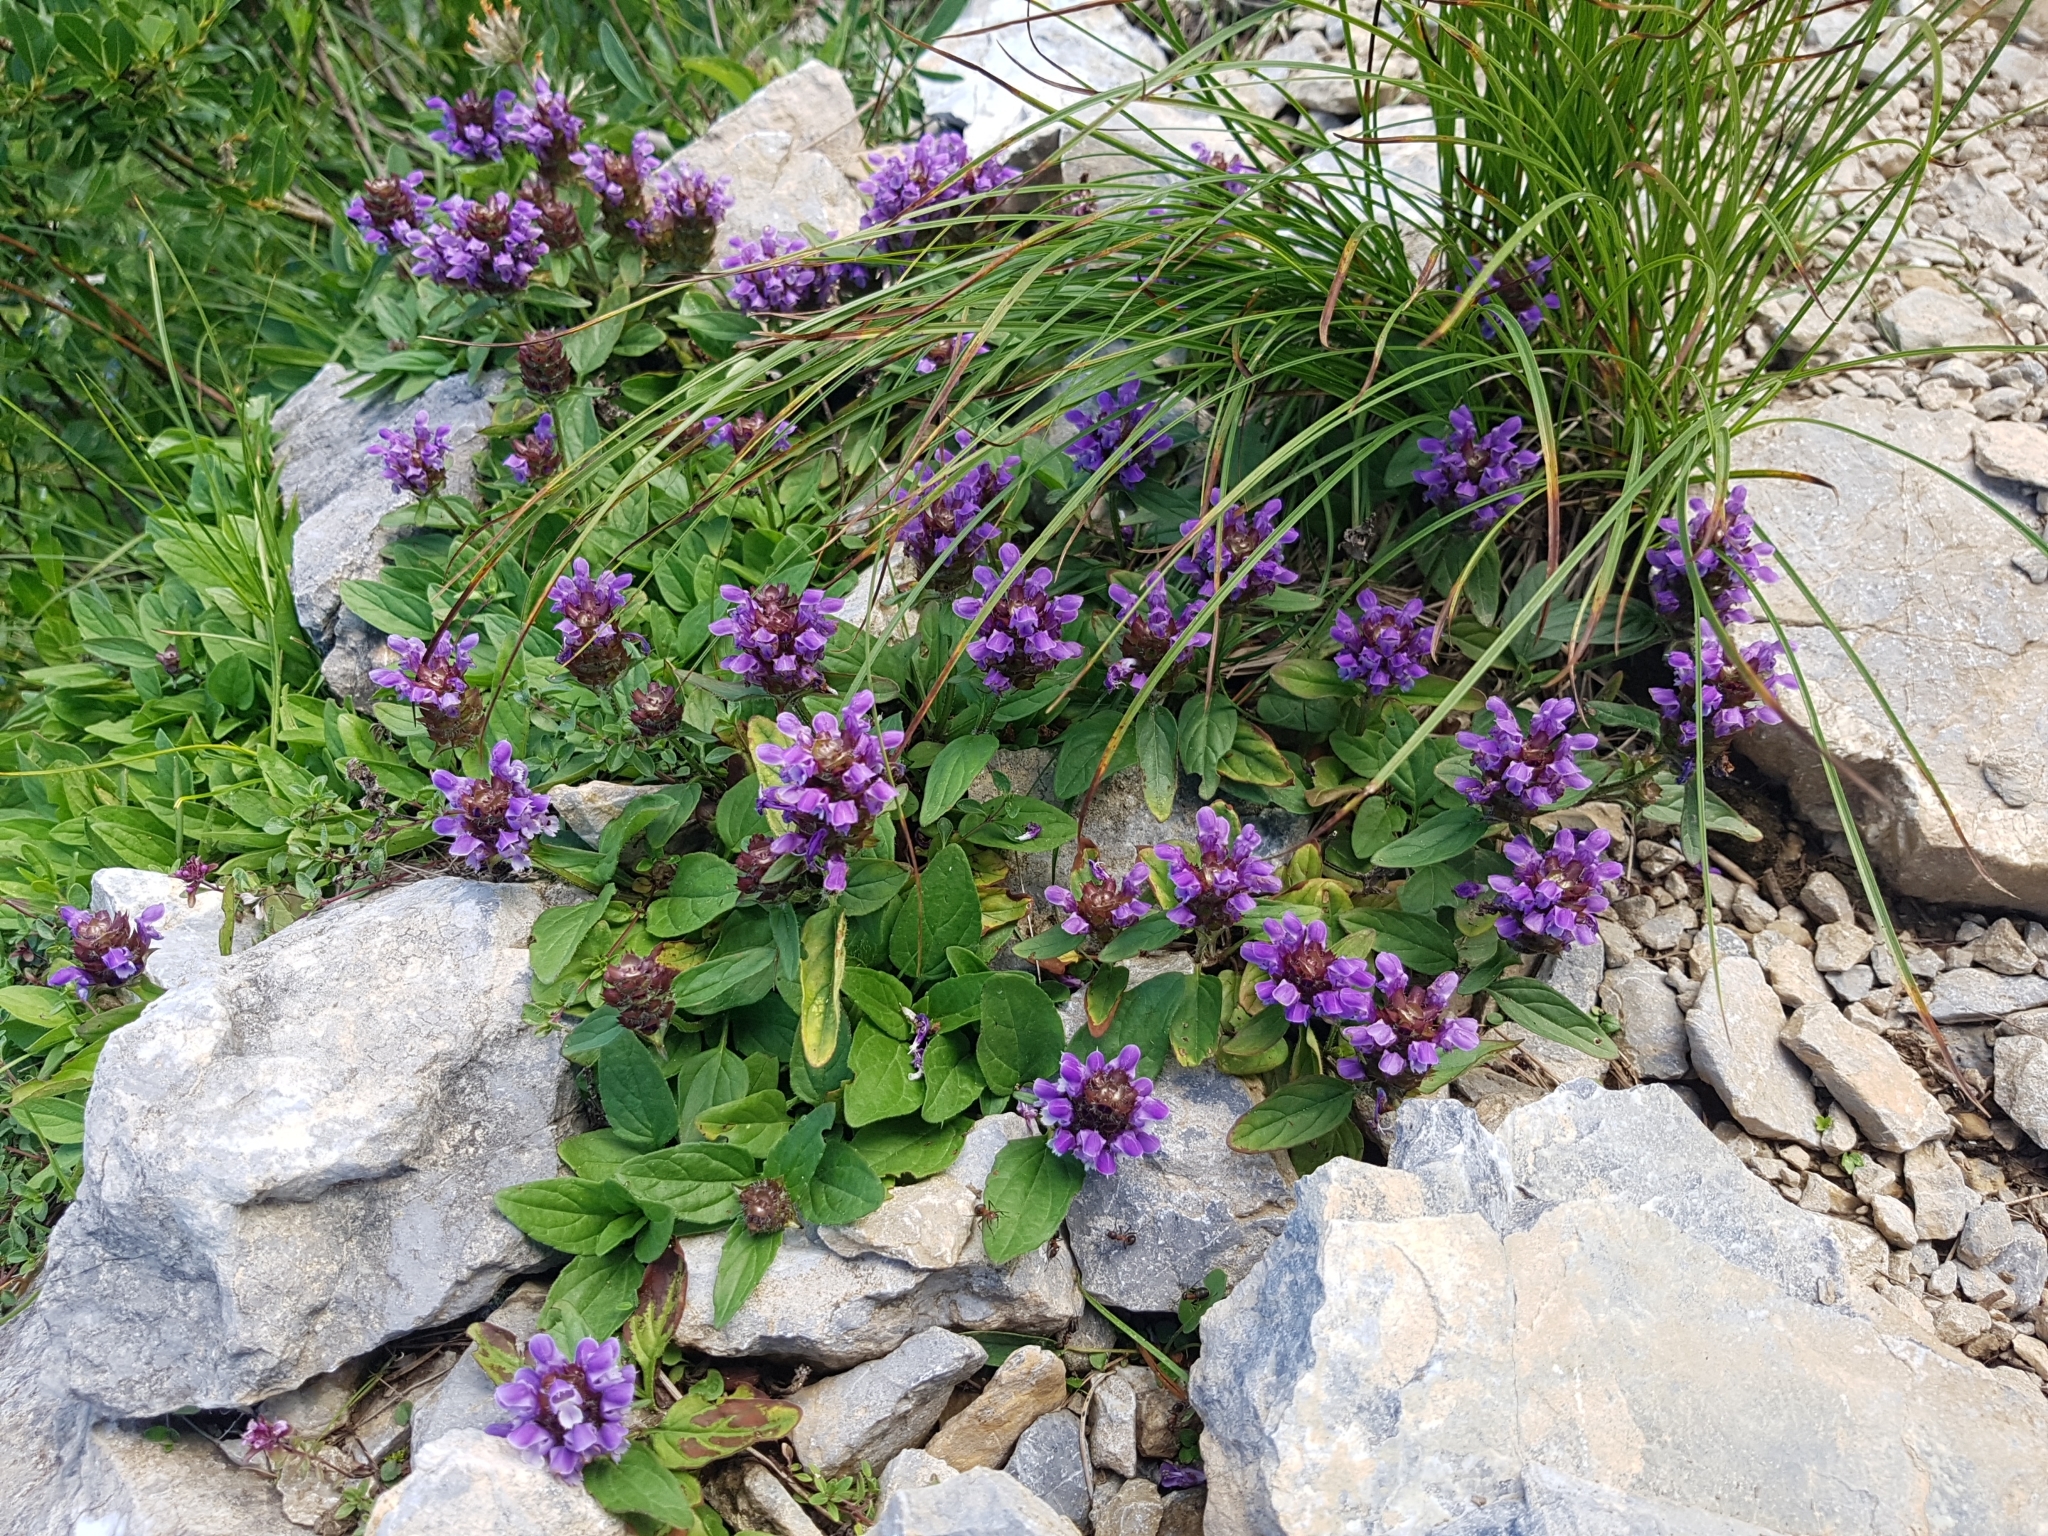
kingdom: Plantae
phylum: Tracheophyta
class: Magnoliopsida
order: Lamiales
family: Lamiaceae
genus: Prunella
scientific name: Prunella grandiflora
